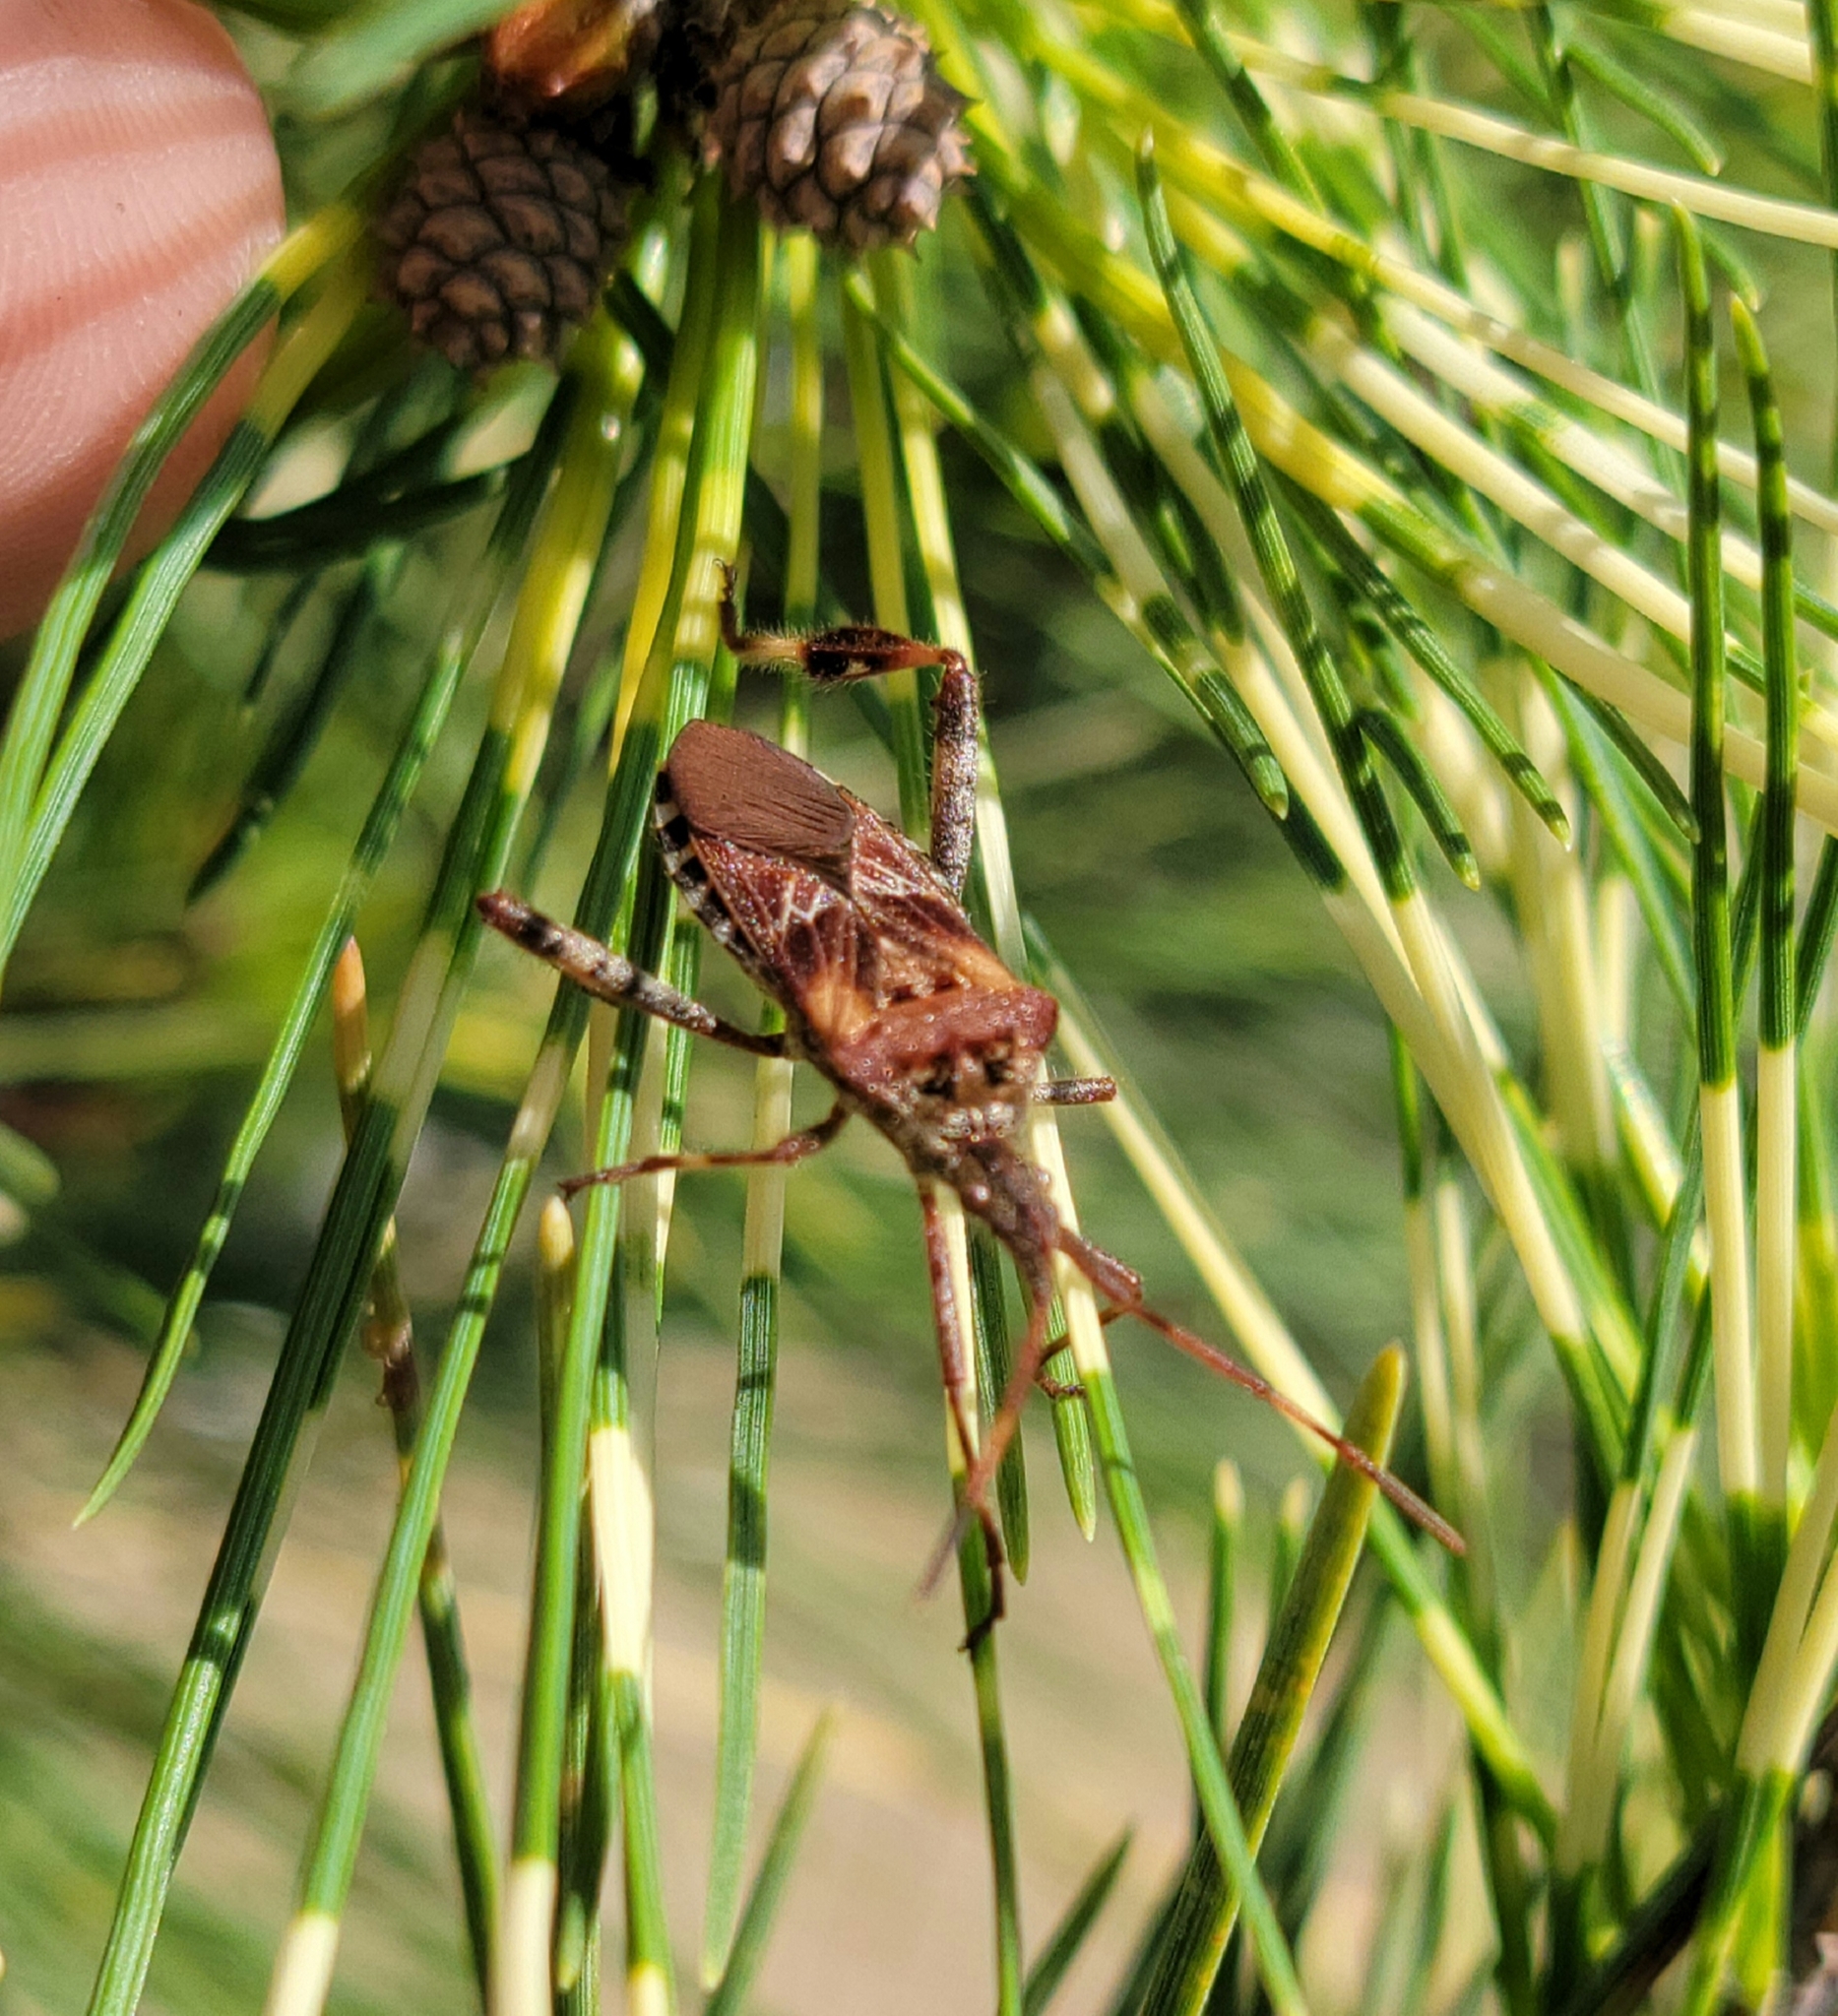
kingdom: Animalia
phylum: Arthropoda
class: Insecta
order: Hemiptera
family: Coreidae
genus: Leptoglossus
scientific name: Leptoglossus occidentalis
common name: Western conifer-seed bug
